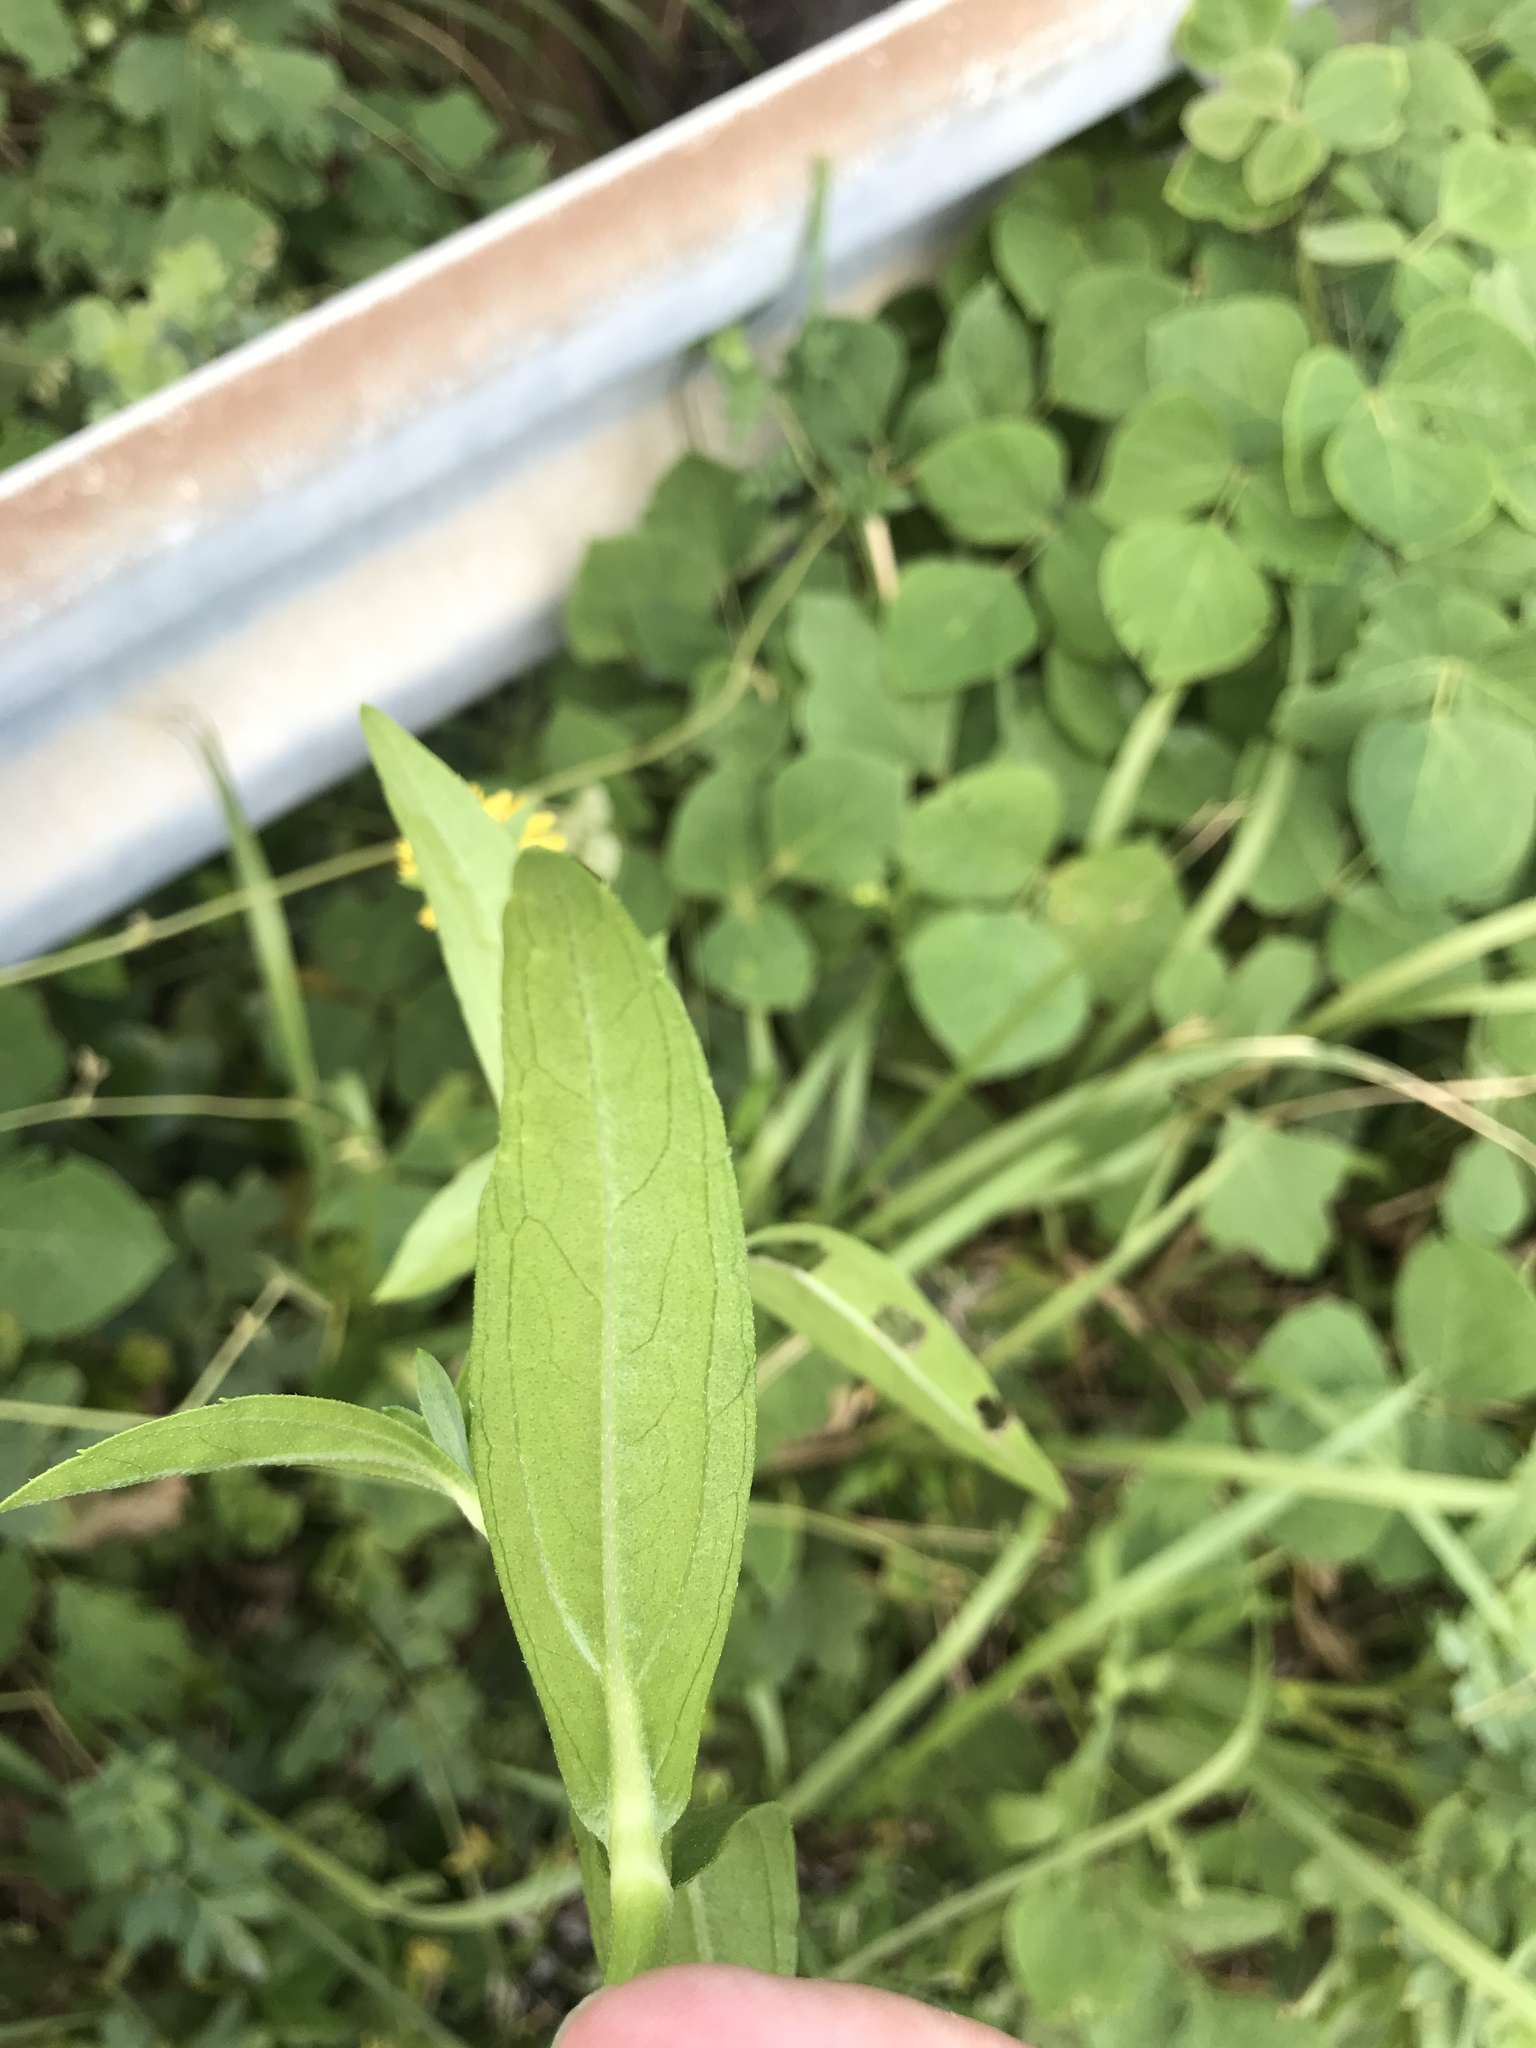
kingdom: Plantae
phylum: Tracheophyta
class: Magnoliopsida
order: Asterales
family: Asteraceae
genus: Sphagneticola
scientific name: Sphagneticola calendulacea
